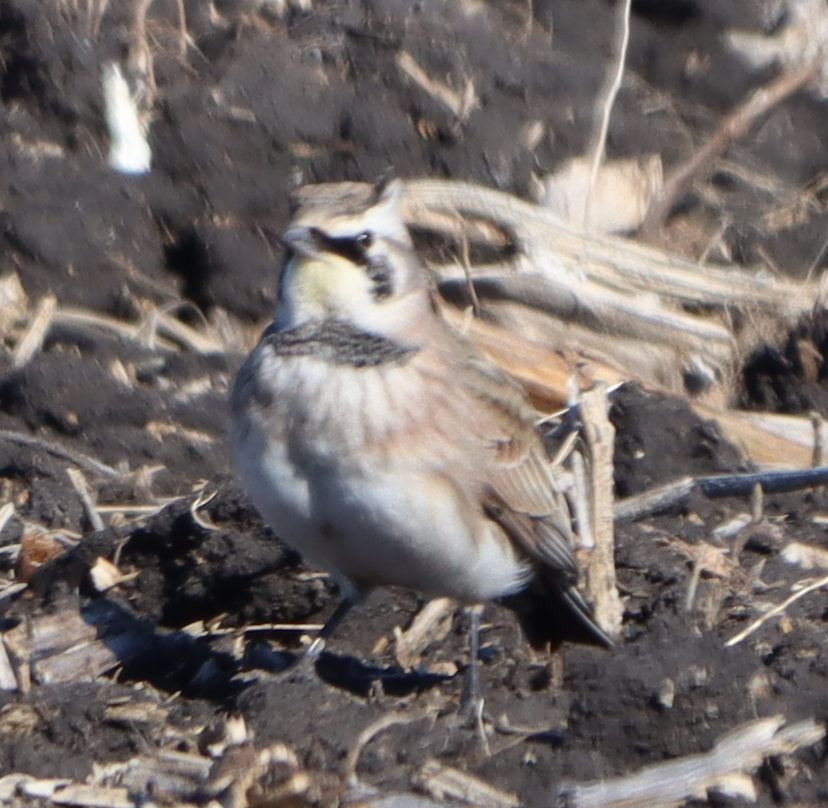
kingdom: Animalia
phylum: Chordata
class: Aves
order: Passeriformes
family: Alaudidae
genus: Eremophila
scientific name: Eremophila alpestris
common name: Horned lark
